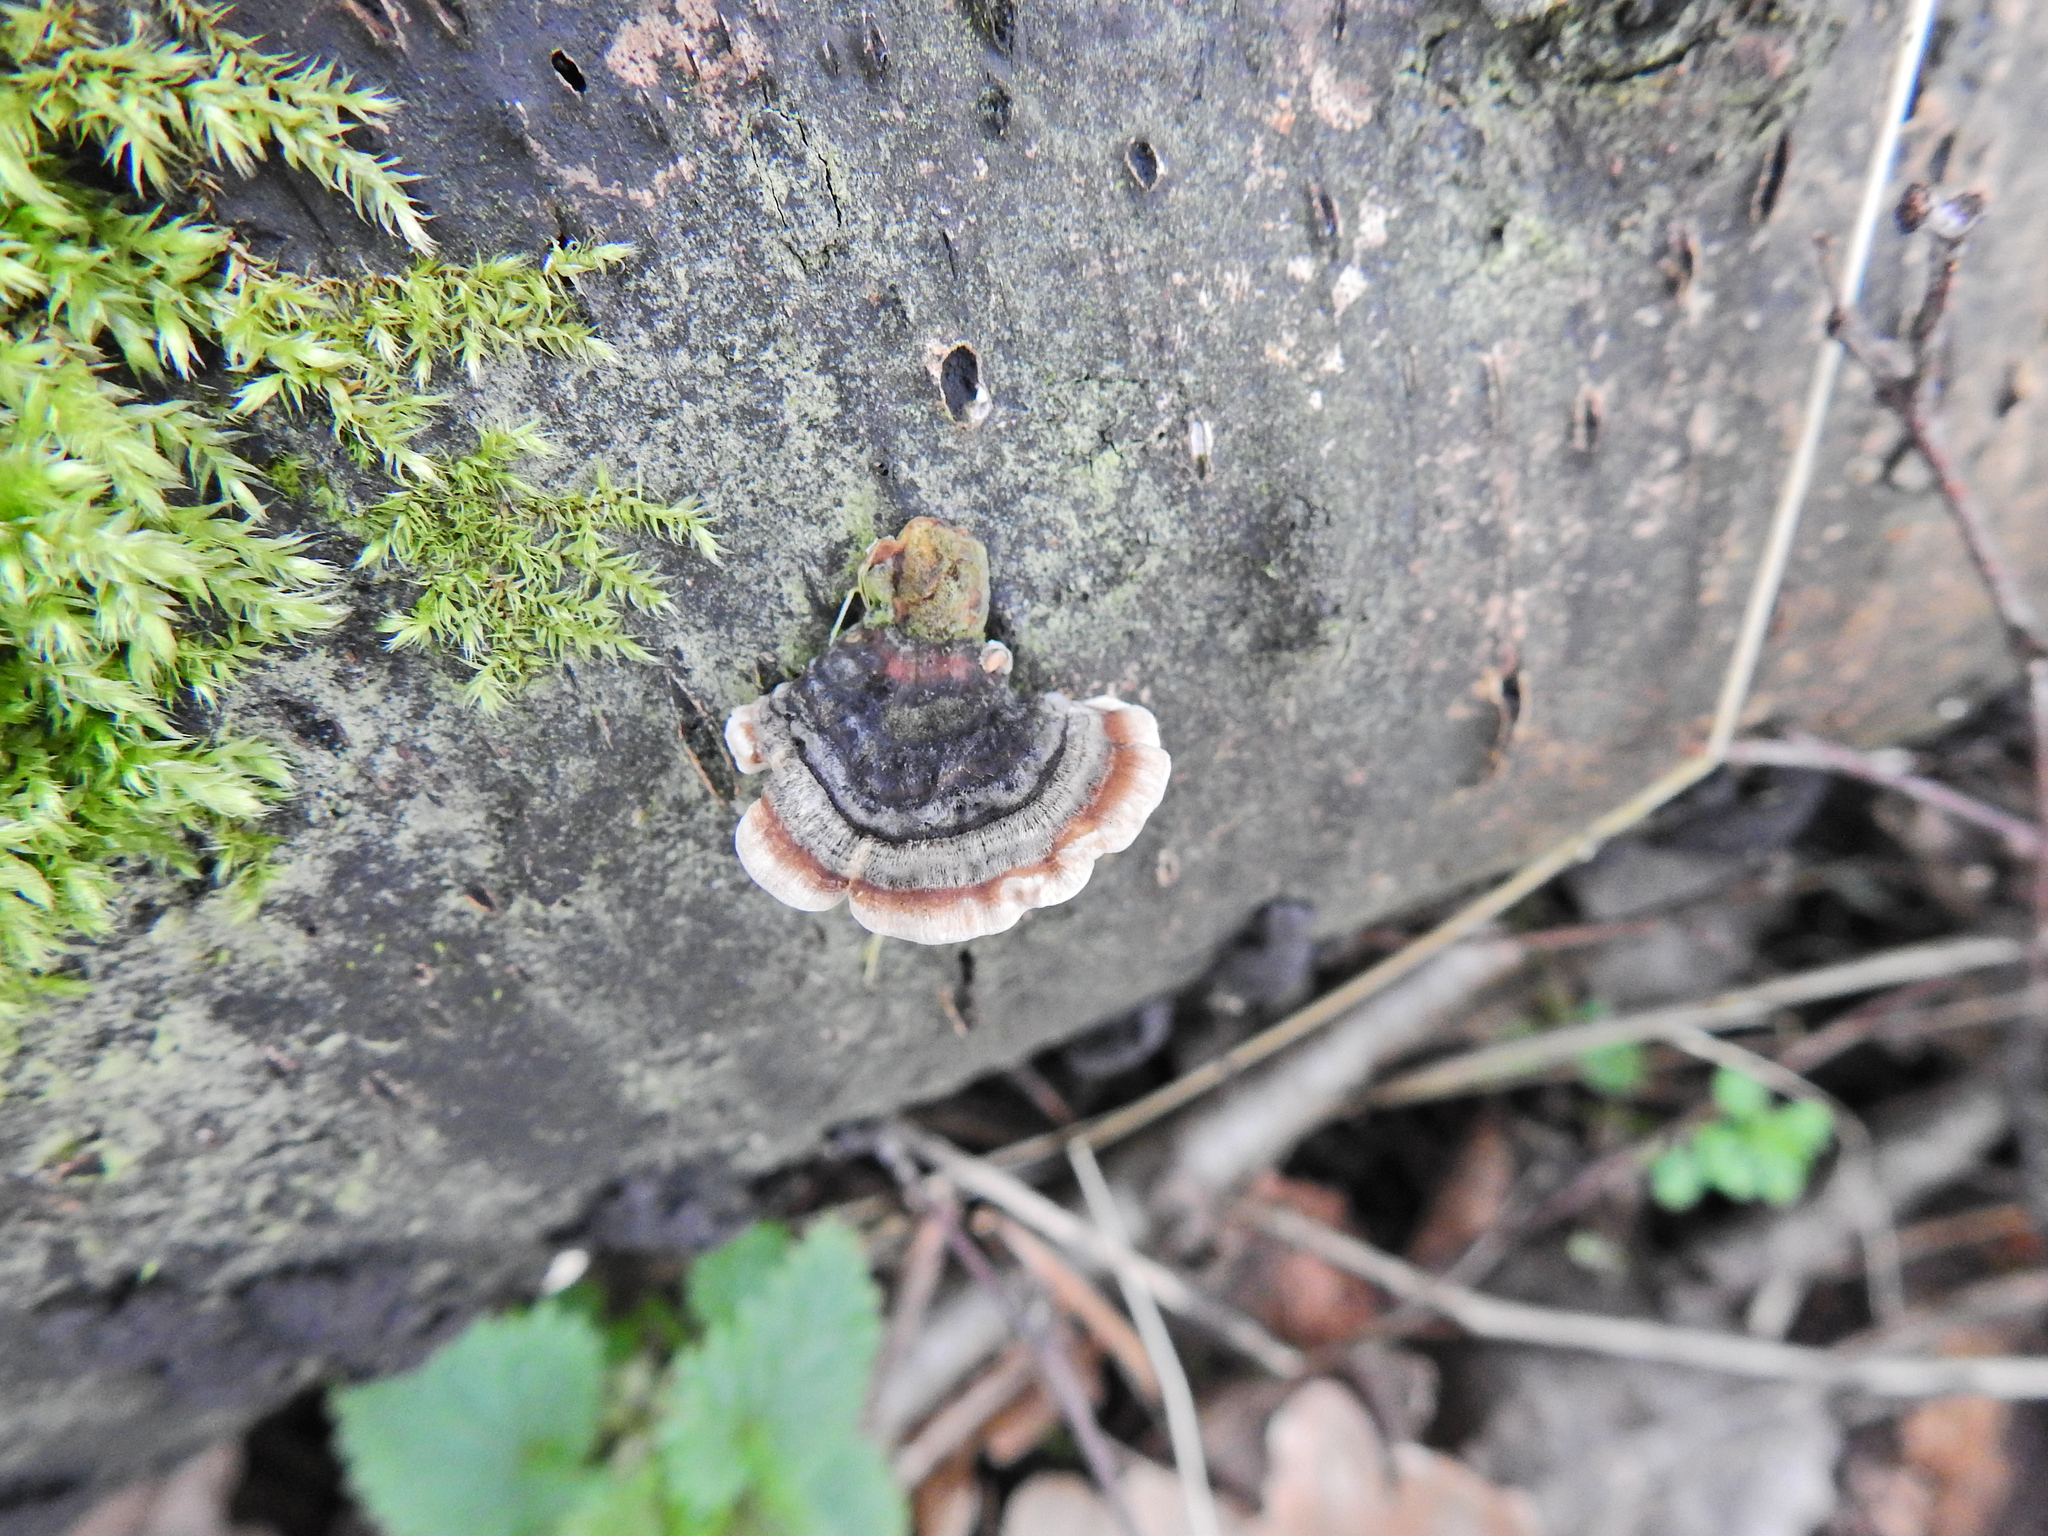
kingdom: Fungi
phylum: Basidiomycota
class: Agaricomycetes
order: Polyporales
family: Polyporaceae
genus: Trametes
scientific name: Trametes versicolor
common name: Turkeytail
